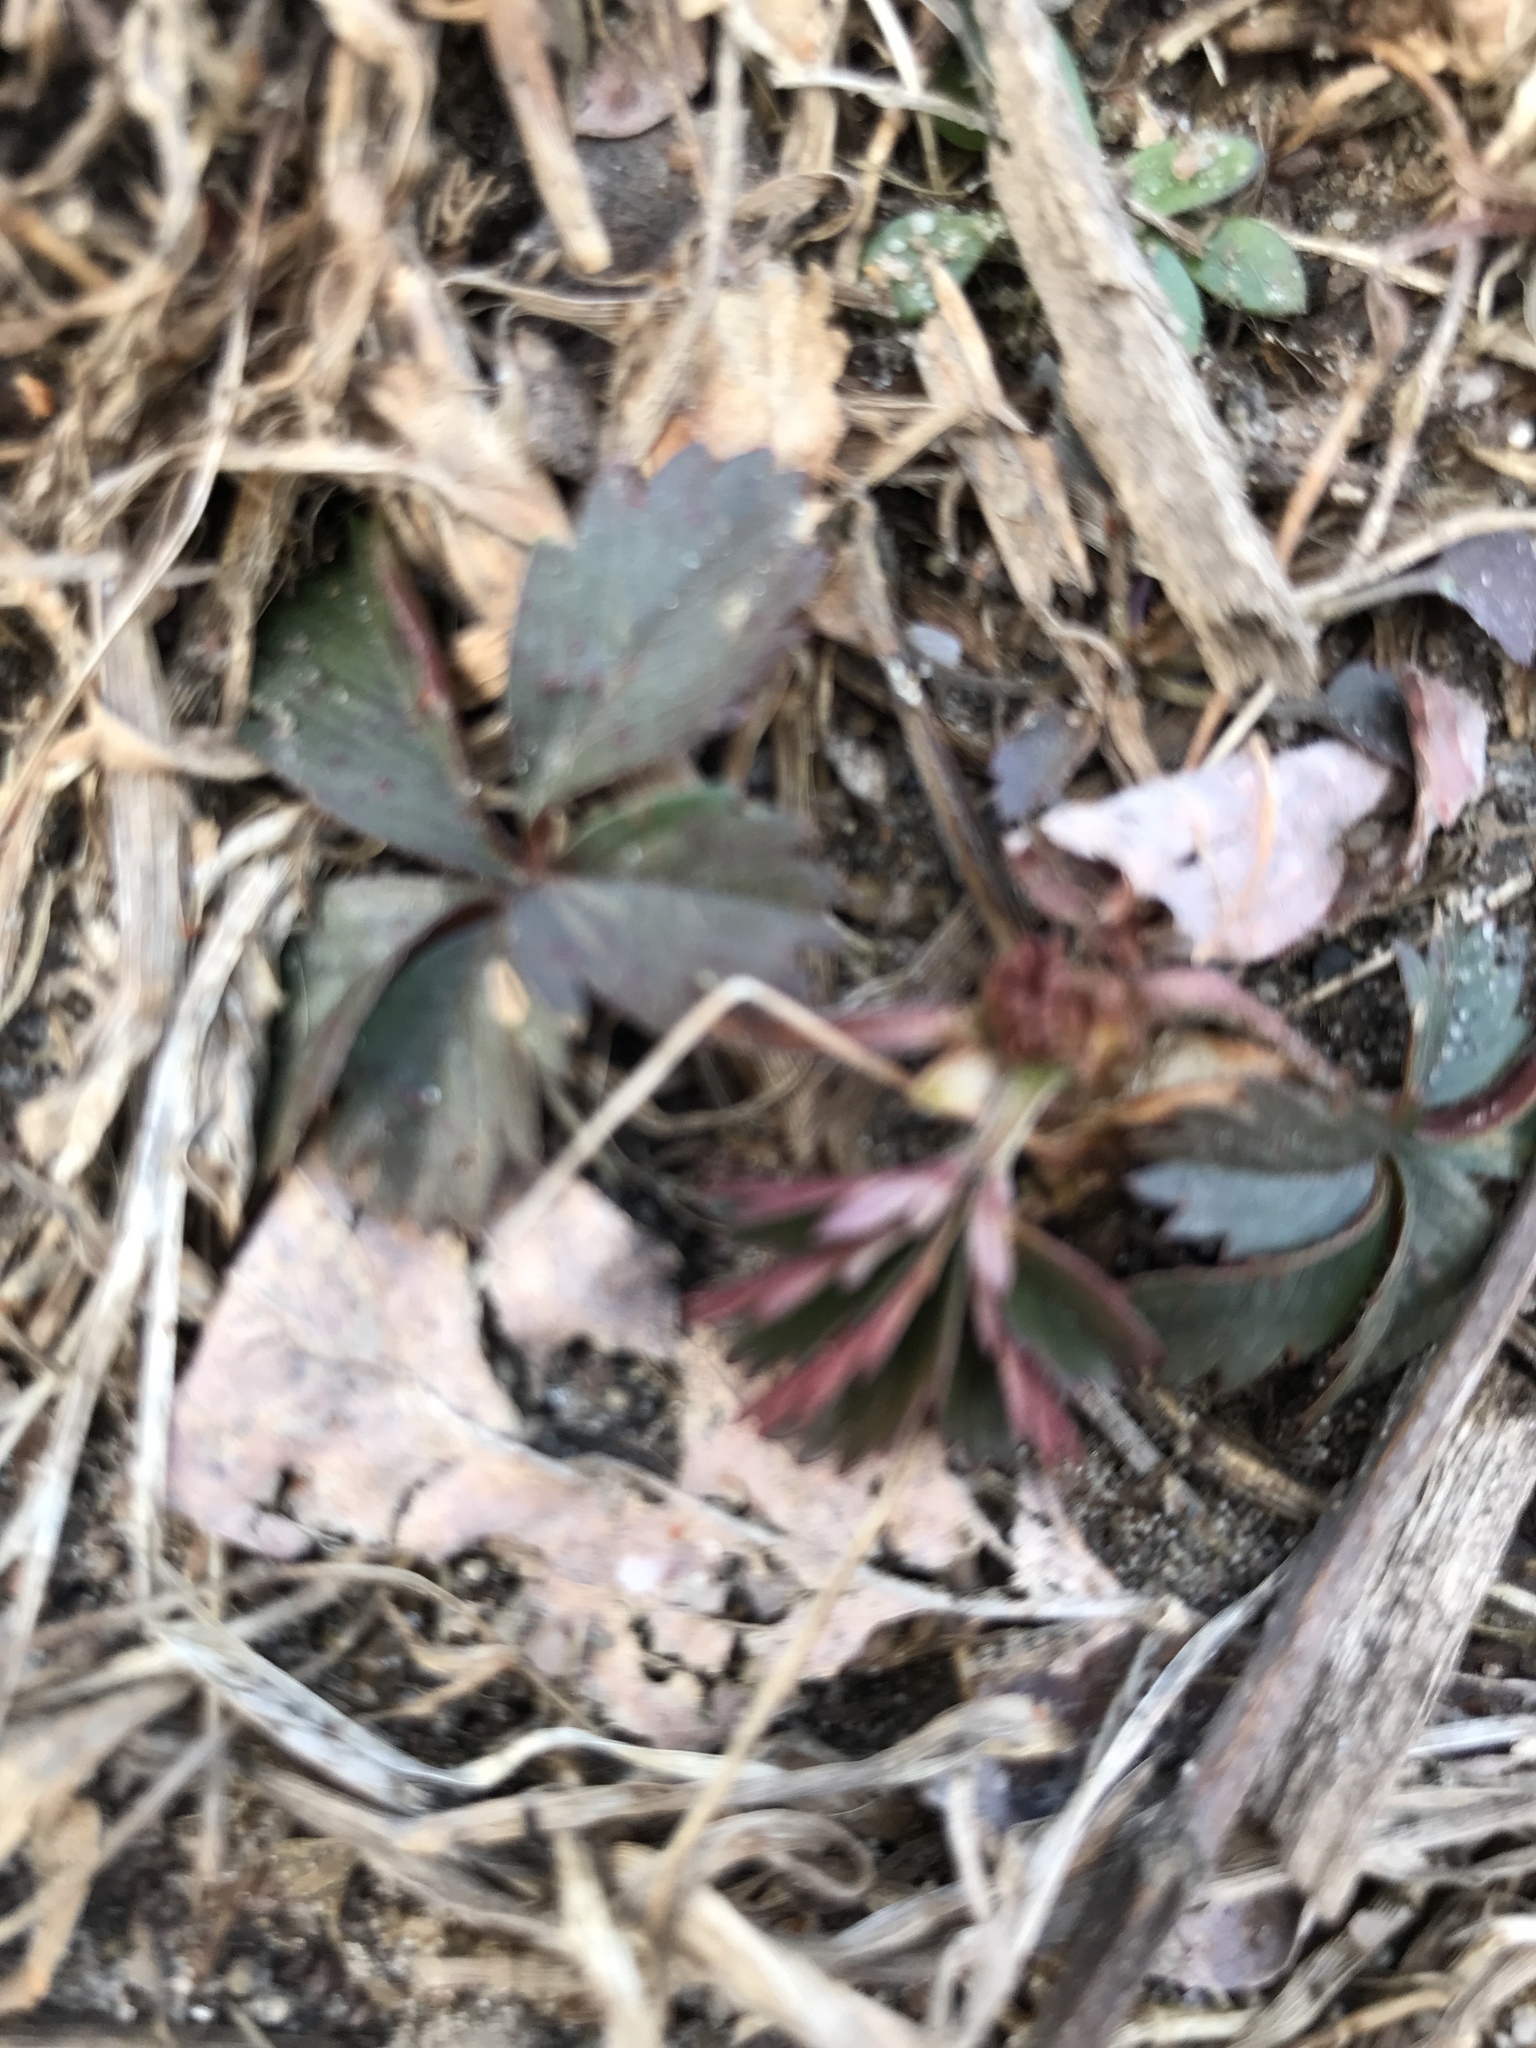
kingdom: Plantae
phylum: Tracheophyta
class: Magnoliopsida
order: Rosales
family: Rosaceae
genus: Potentilla
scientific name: Potentilla canadensis
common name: Canada cinquefoil
